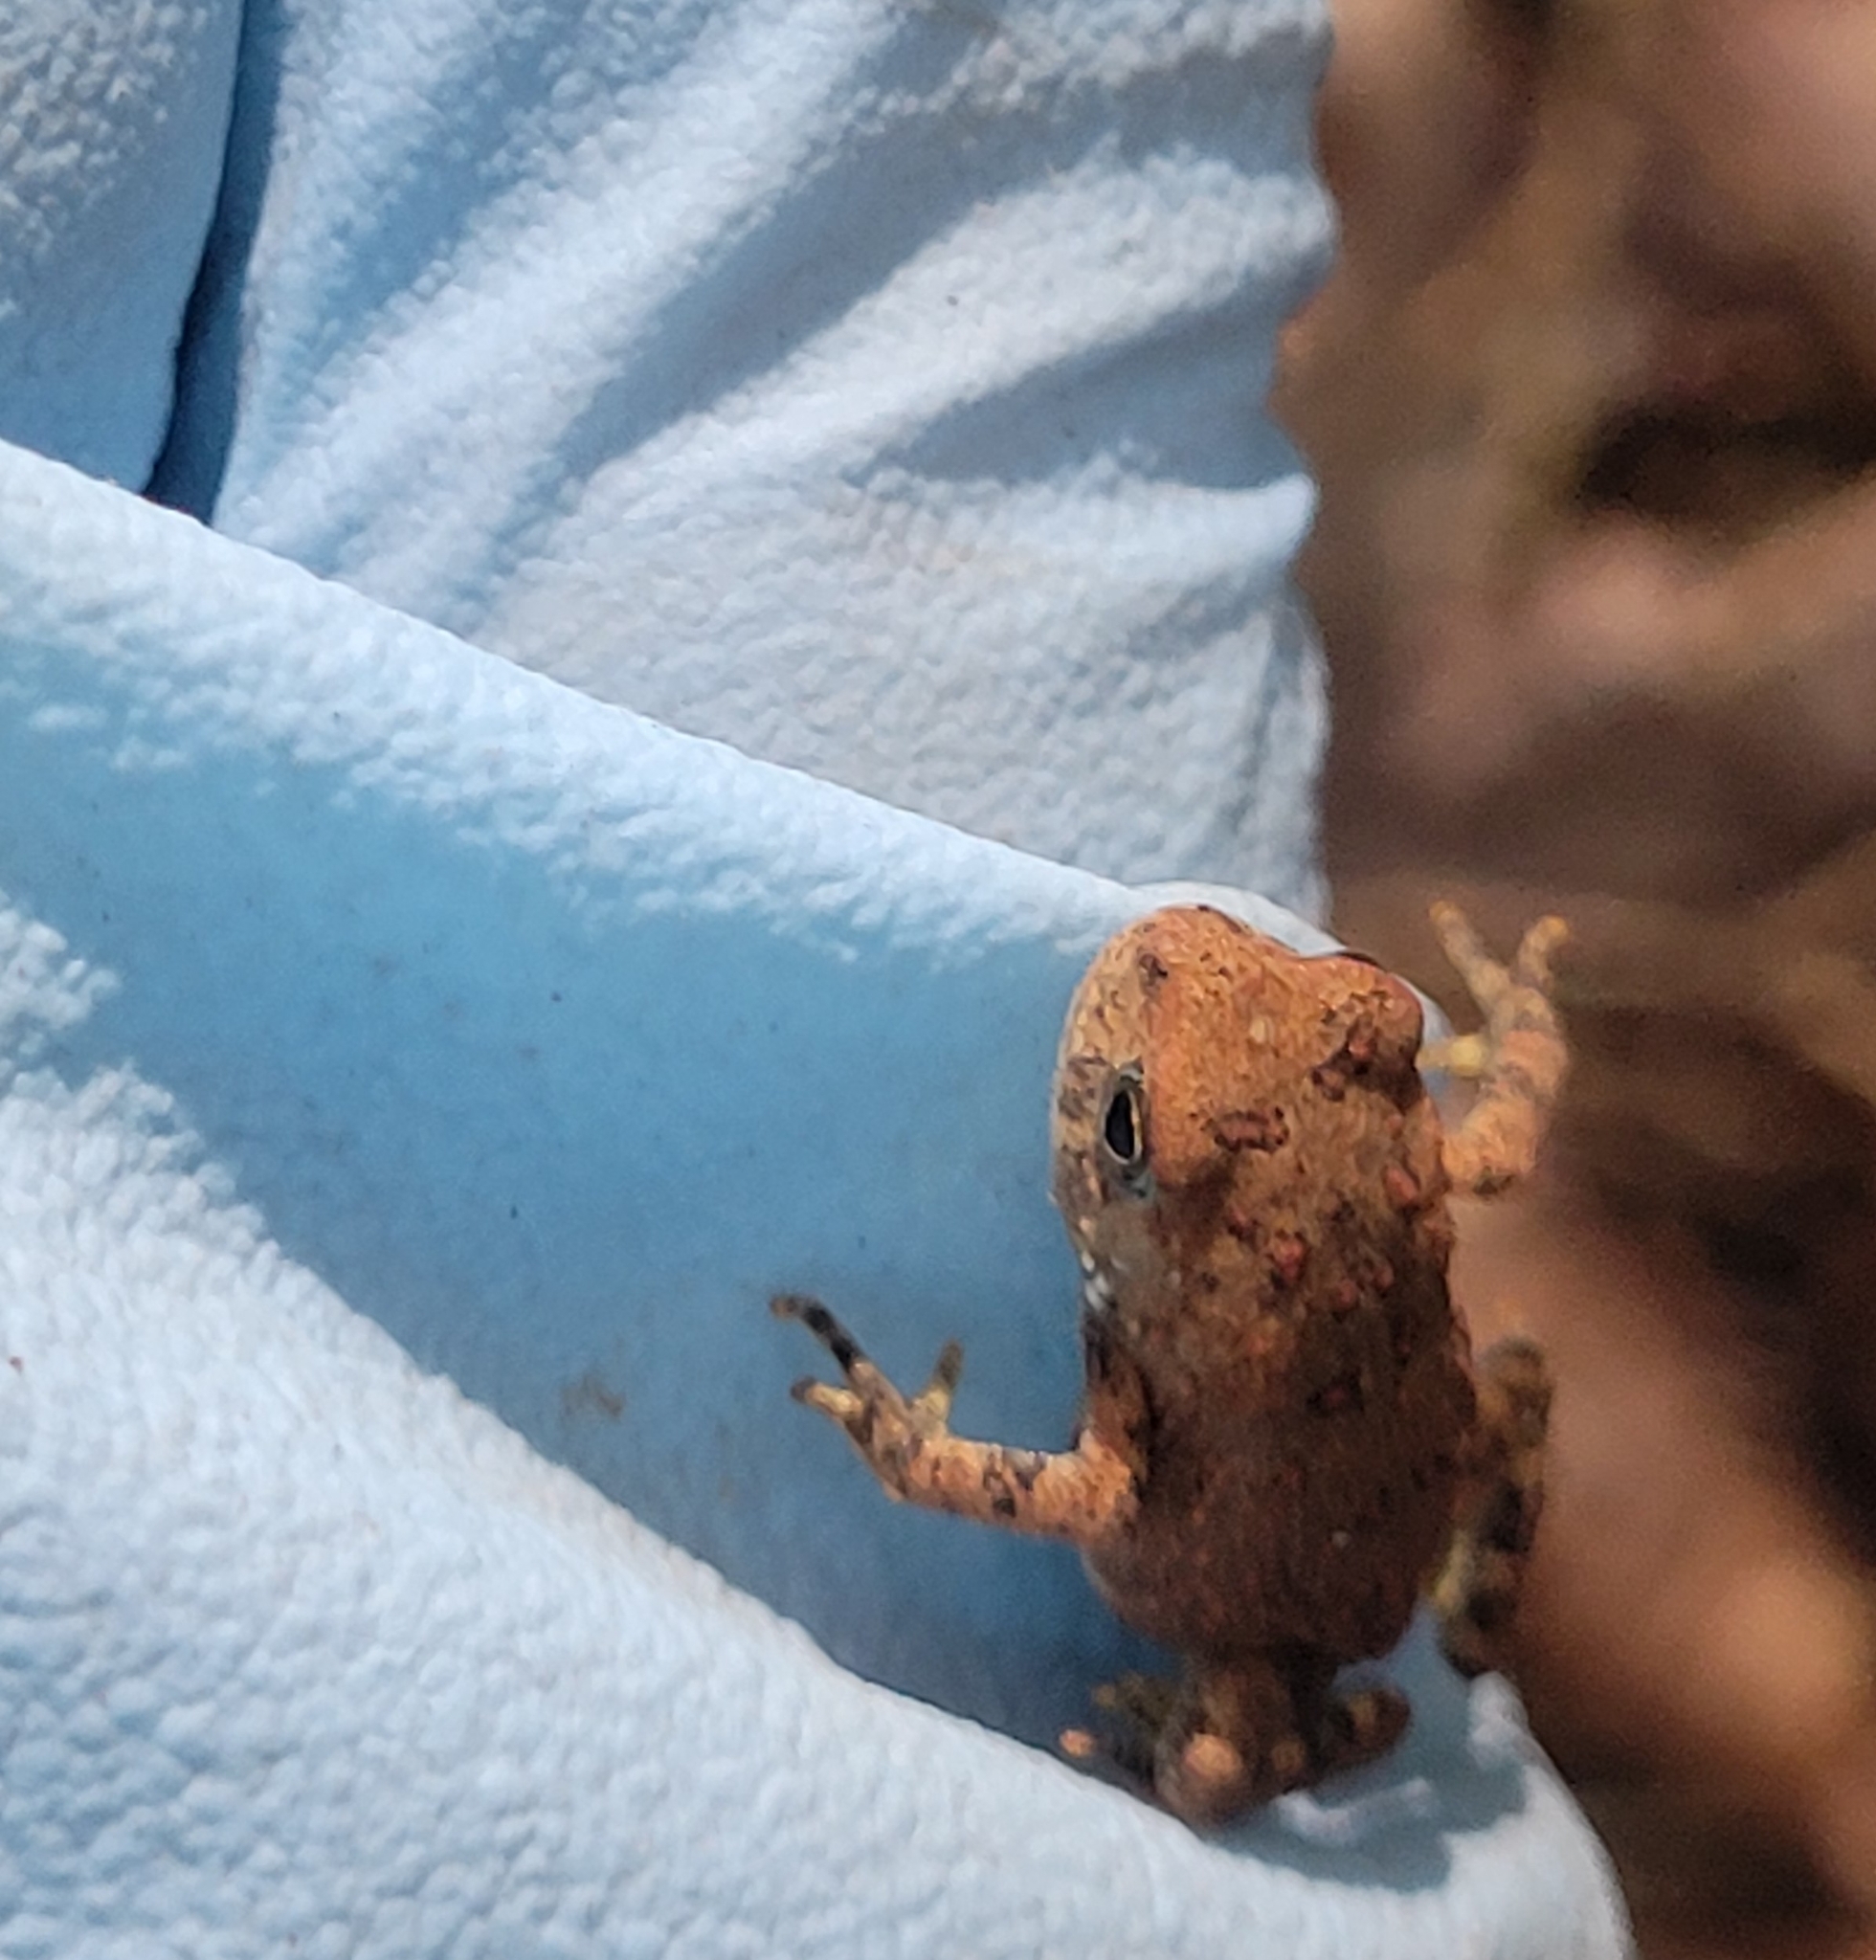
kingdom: Animalia
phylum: Chordata
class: Amphibia
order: Anura
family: Bufonidae
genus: Anaxyrus
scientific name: Anaxyrus americanus
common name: American toad
